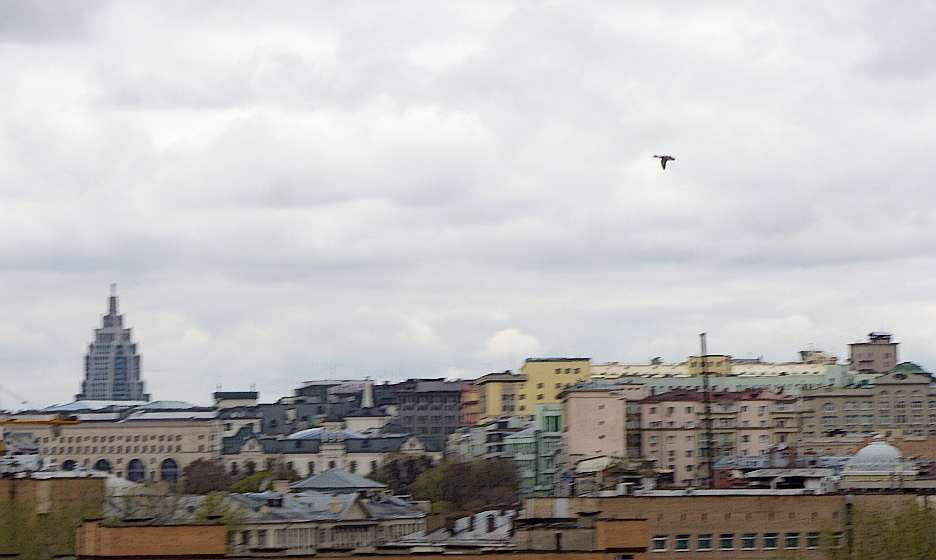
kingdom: Animalia
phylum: Chordata
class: Aves
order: Anseriformes
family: Anatidae
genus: Anas
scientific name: Anas platyrhynchos
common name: Mallard
